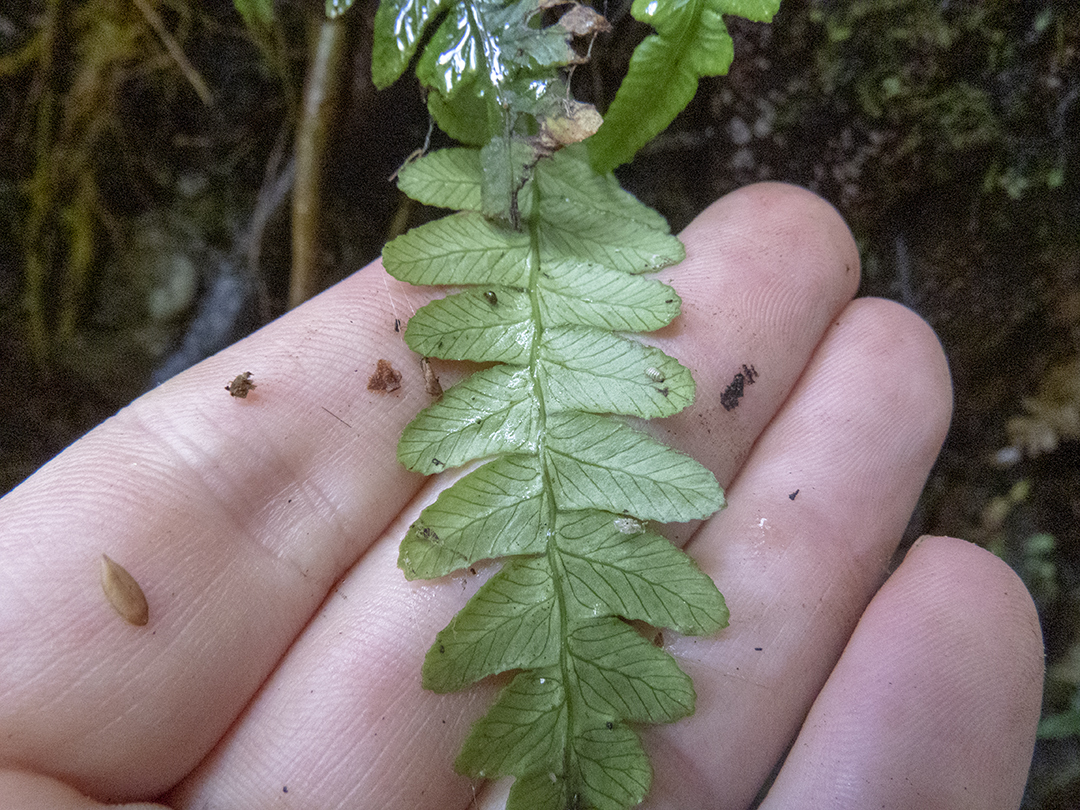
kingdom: Plantae
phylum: Tracheophyta
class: Polypodiopsida
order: Polypodiales
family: Blechnaceae
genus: Austroblechnum
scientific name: Austroblechnum lanceolatum
